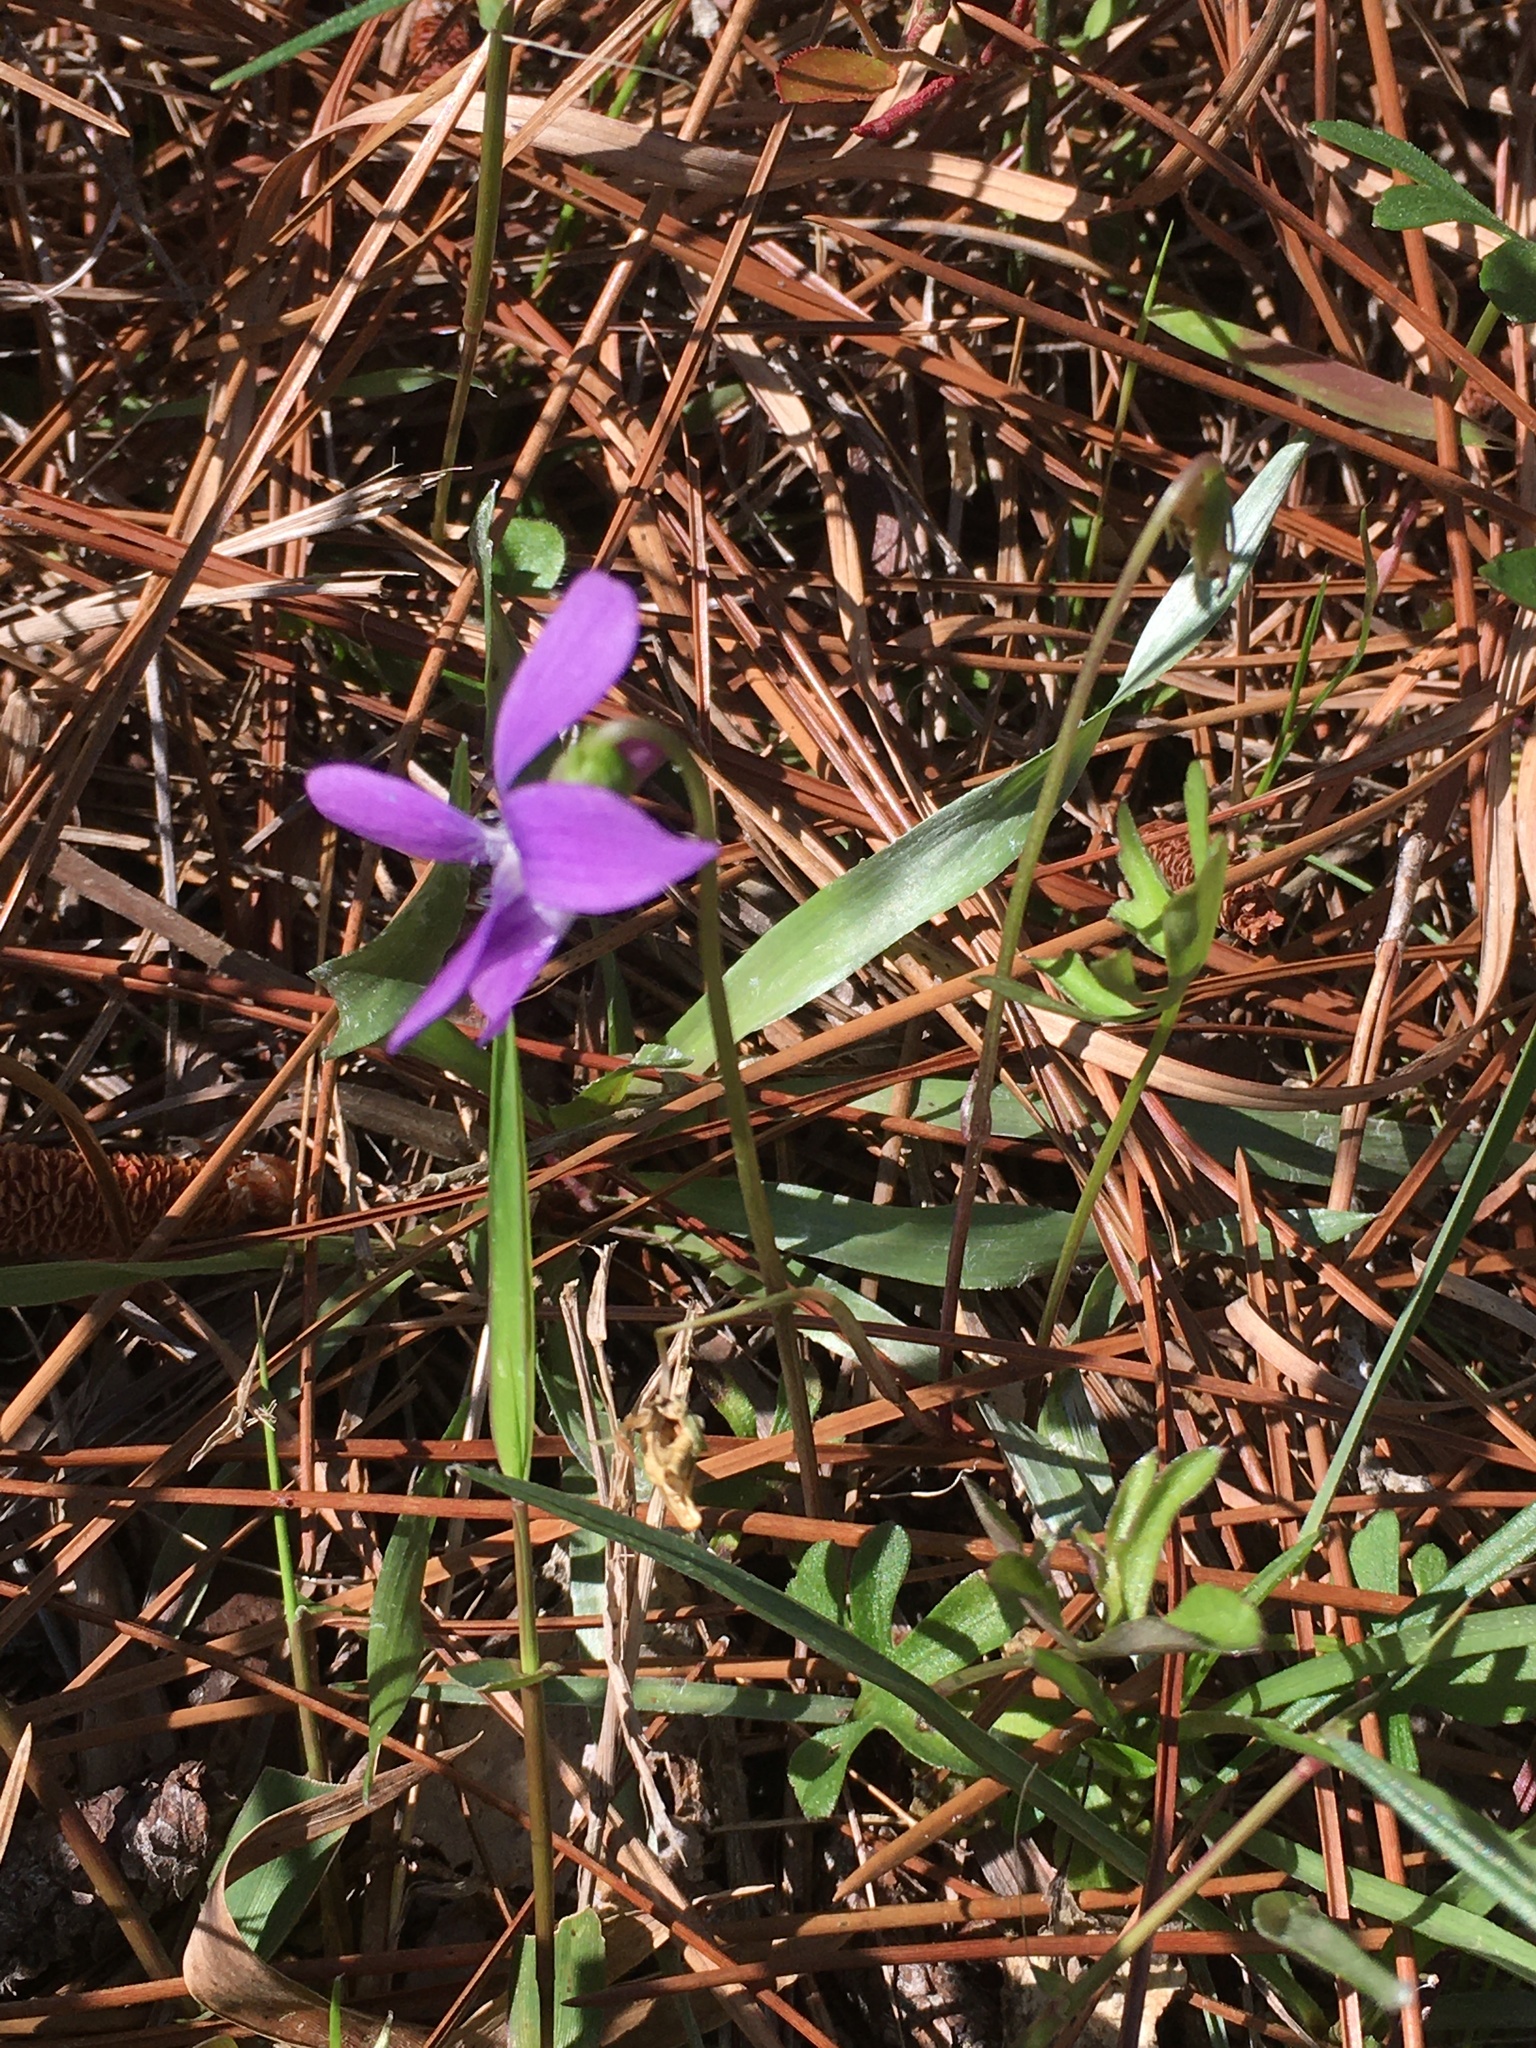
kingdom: Plantae
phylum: Tracheophyta
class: Magnoliopsida
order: Malpighiales
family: Violaceae
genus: Viola
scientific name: Viola septemloba
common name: Southern coast violet
